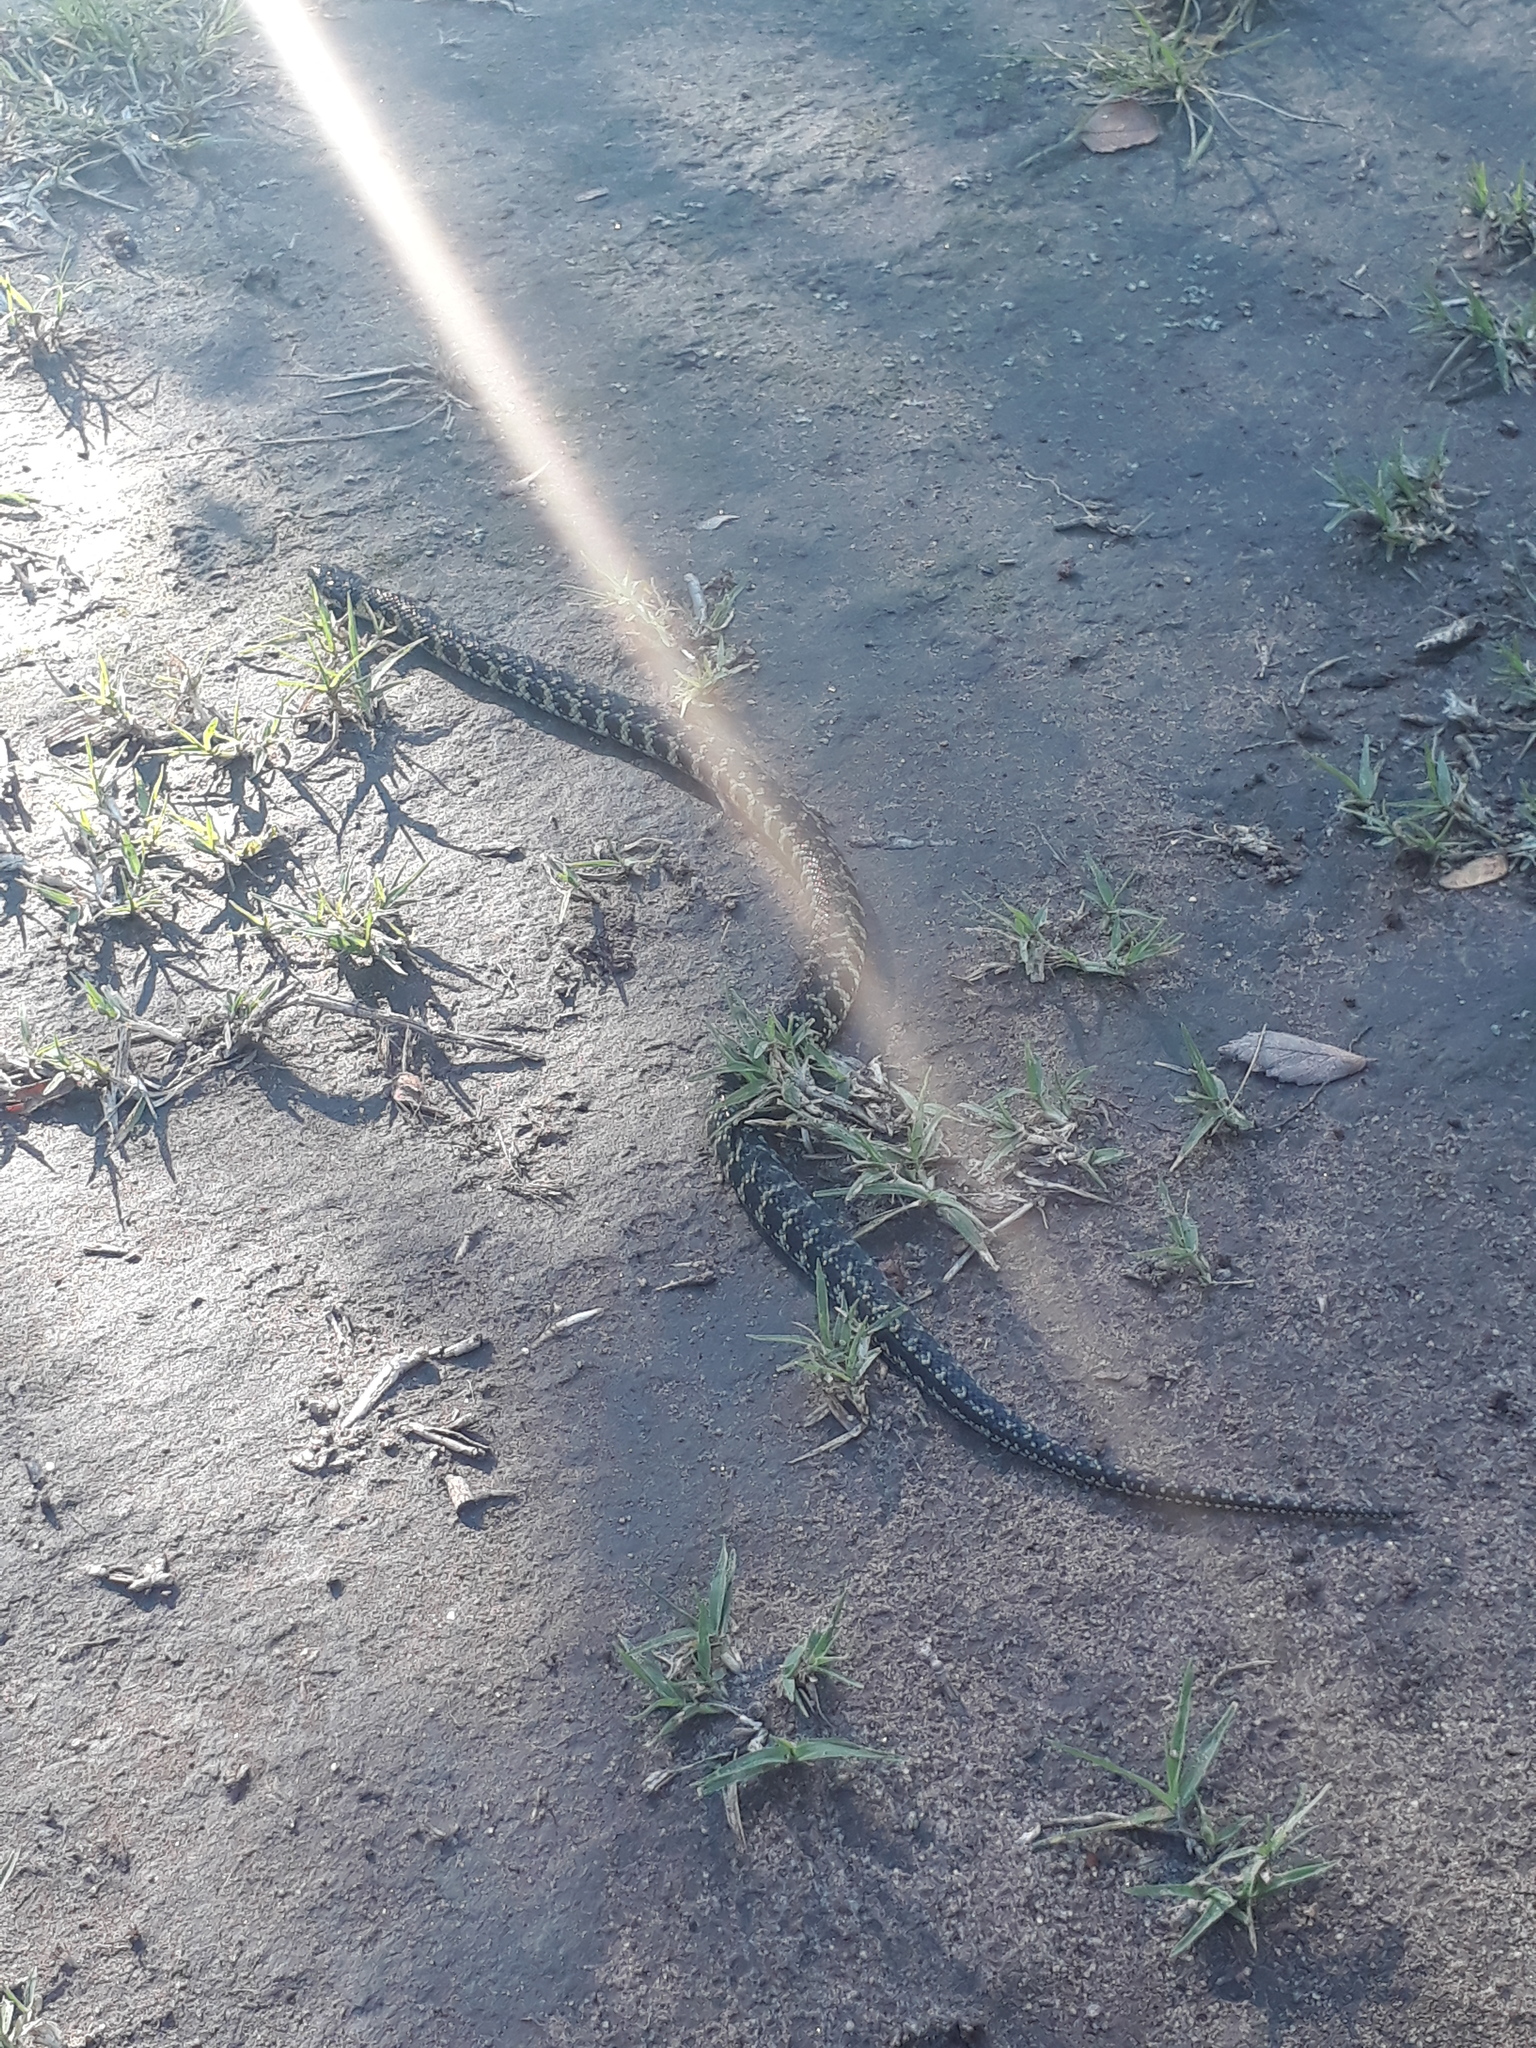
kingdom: Animalia
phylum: Chordata
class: Squamata
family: Colubridae
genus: Erythrolamprus
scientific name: Erythrolamprus poecilogyrus
